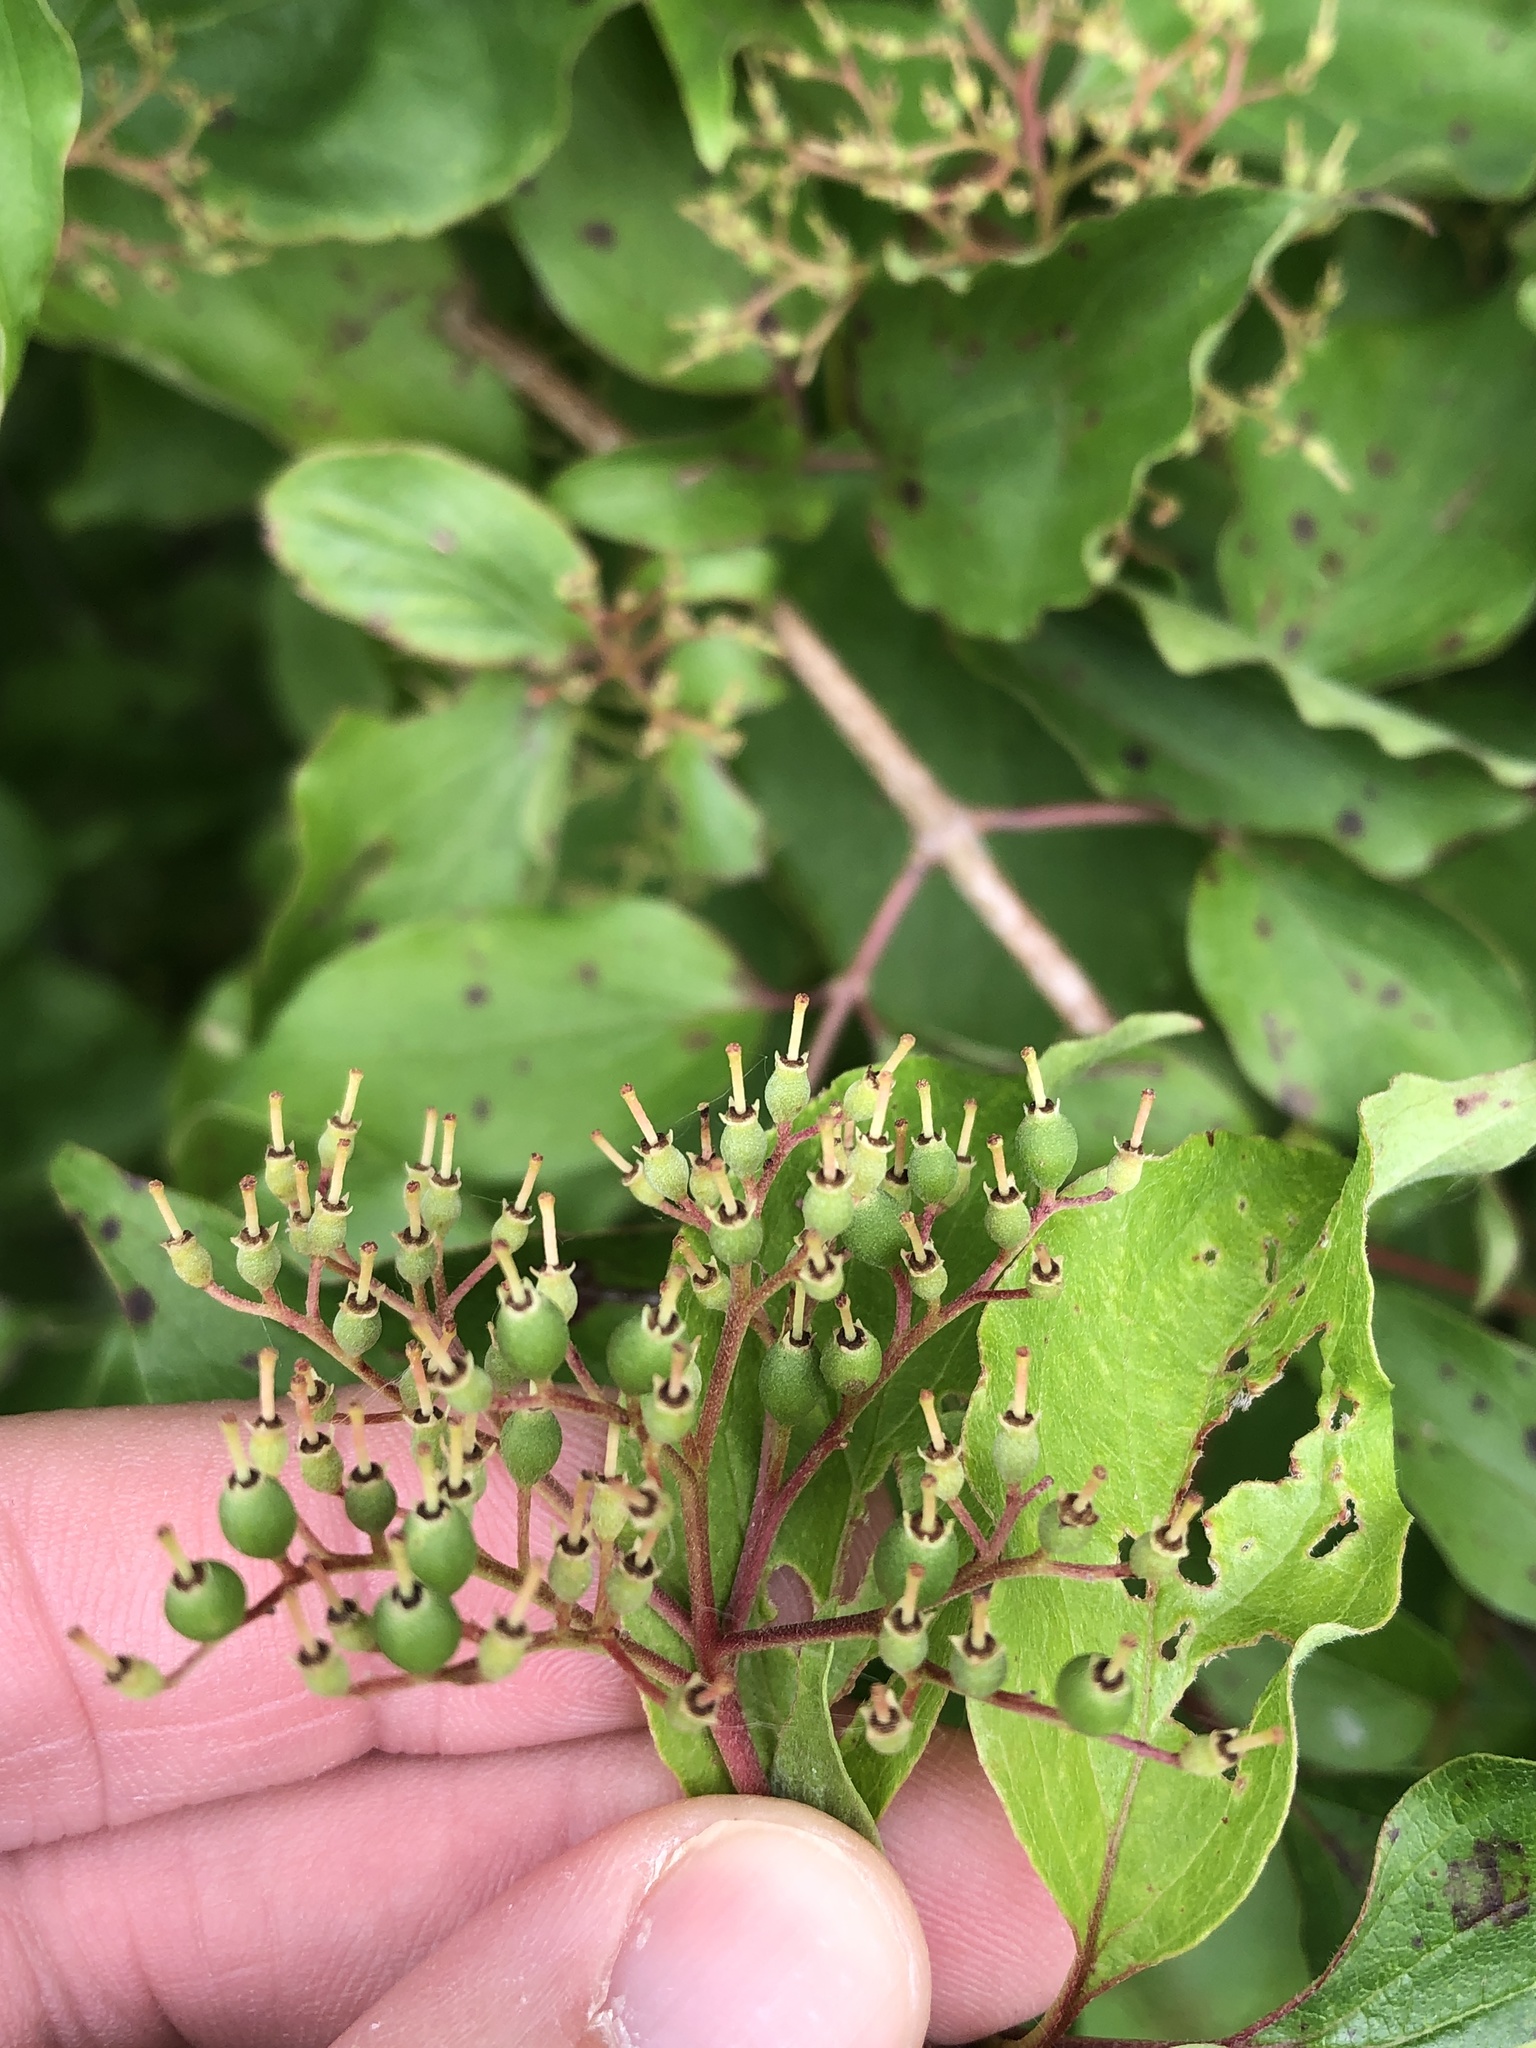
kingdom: Plantae
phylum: Tracheophyta
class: Magnoliopsida
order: Cornales
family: Cornaceae
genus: Cornus
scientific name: Cornus drummondii
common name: Rough-leaf dogwood
